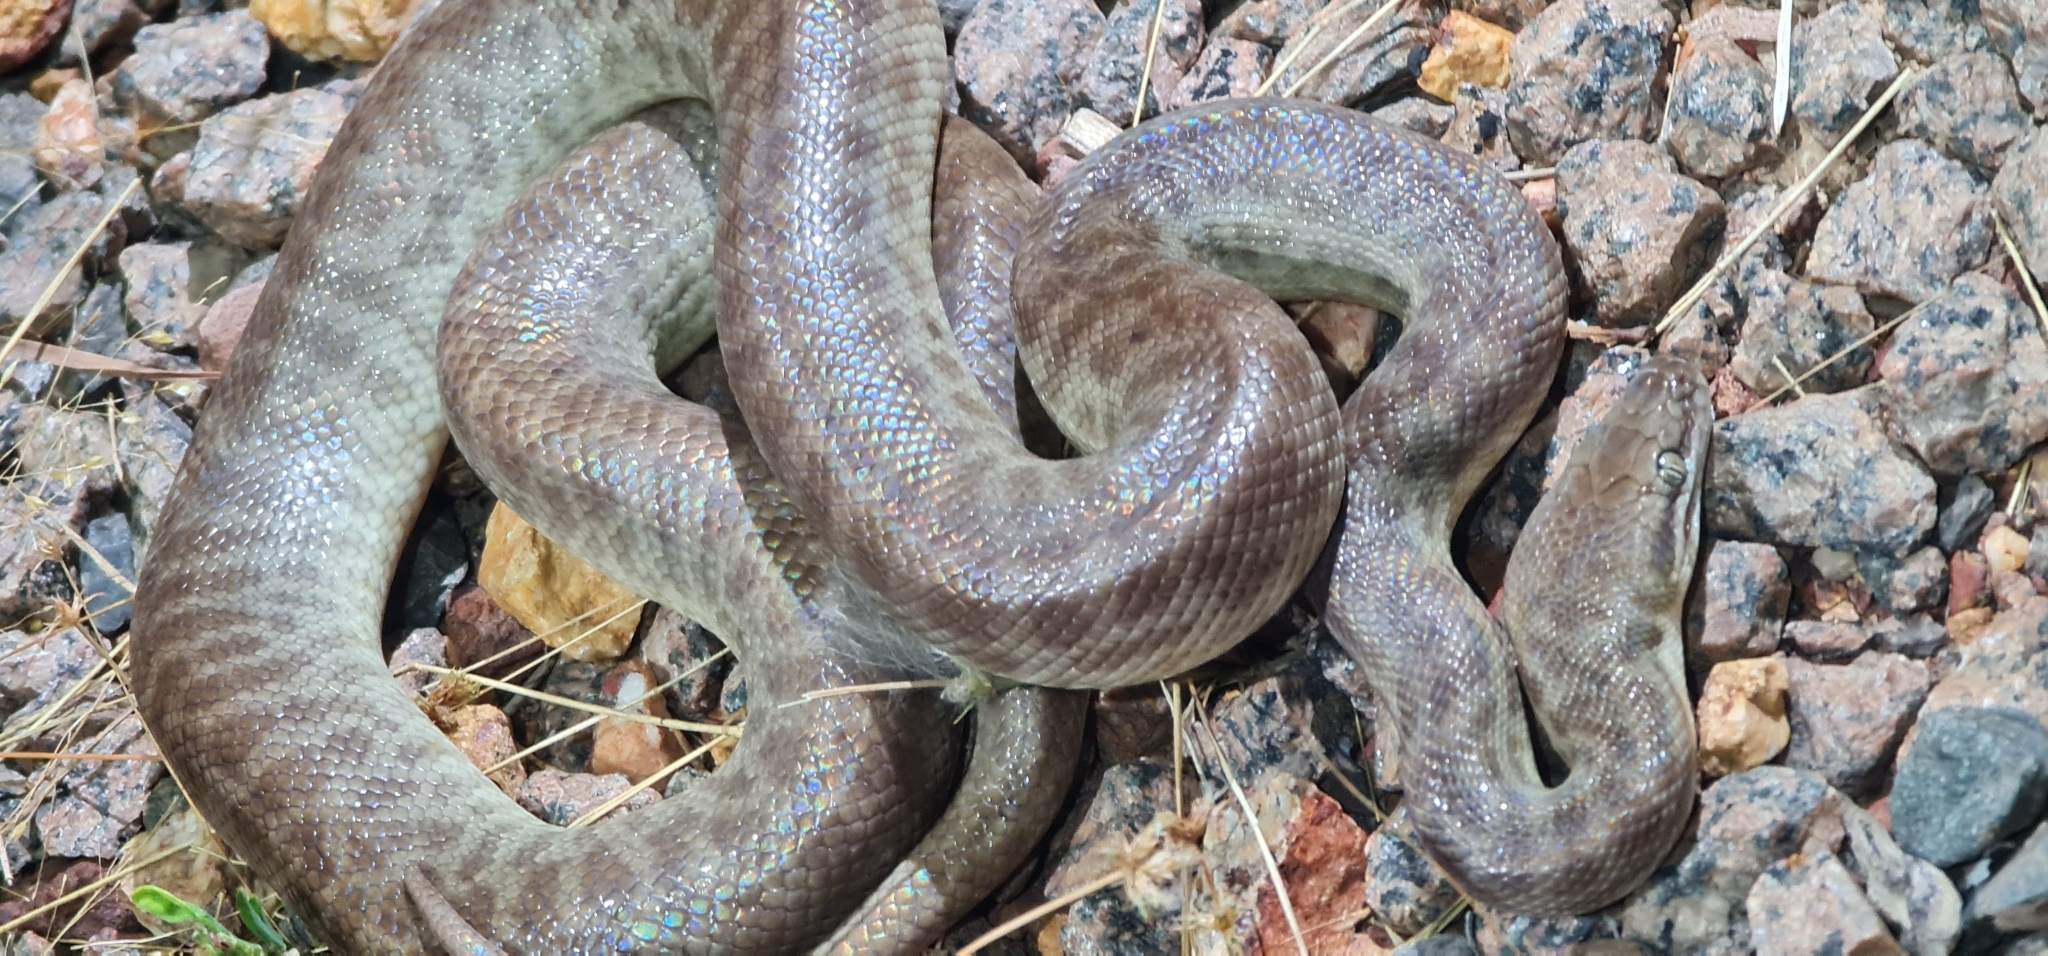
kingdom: Animalia
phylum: Chordata
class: Squamata
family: Pythonidae
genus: Antaresia
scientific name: Antaresia childreni
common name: Children's python
